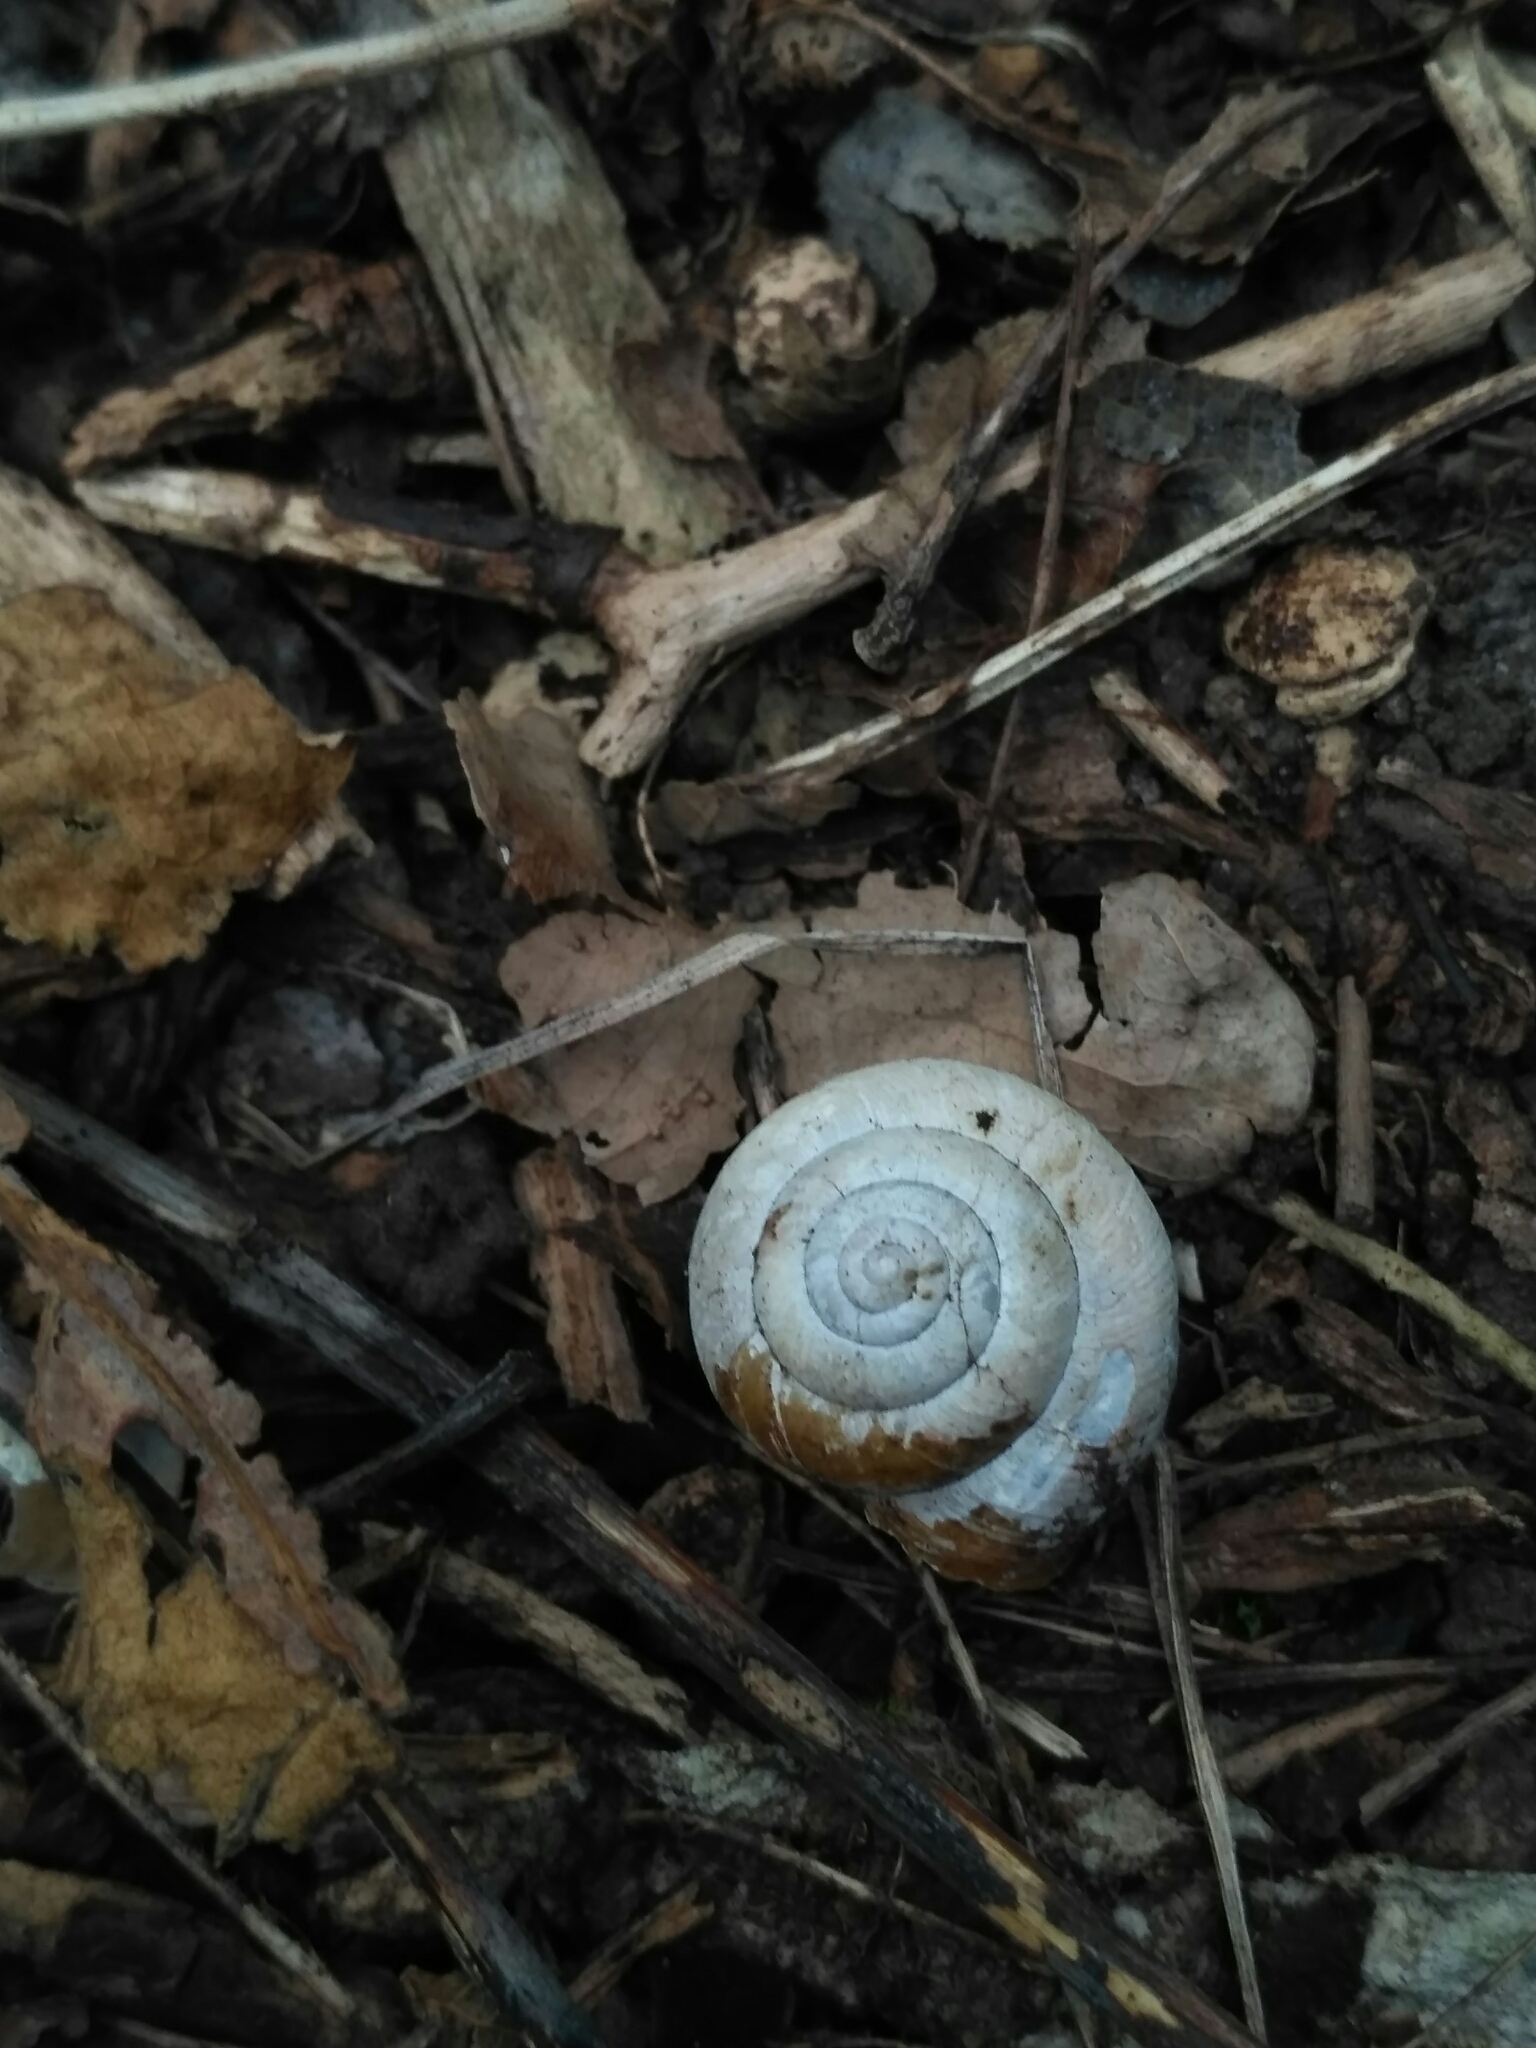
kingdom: Animalia
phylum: Mollusca
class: Gastropoda
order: Stylommatophora
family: Hygromiidae
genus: Euomphalia
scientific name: Euomphalia strigella
